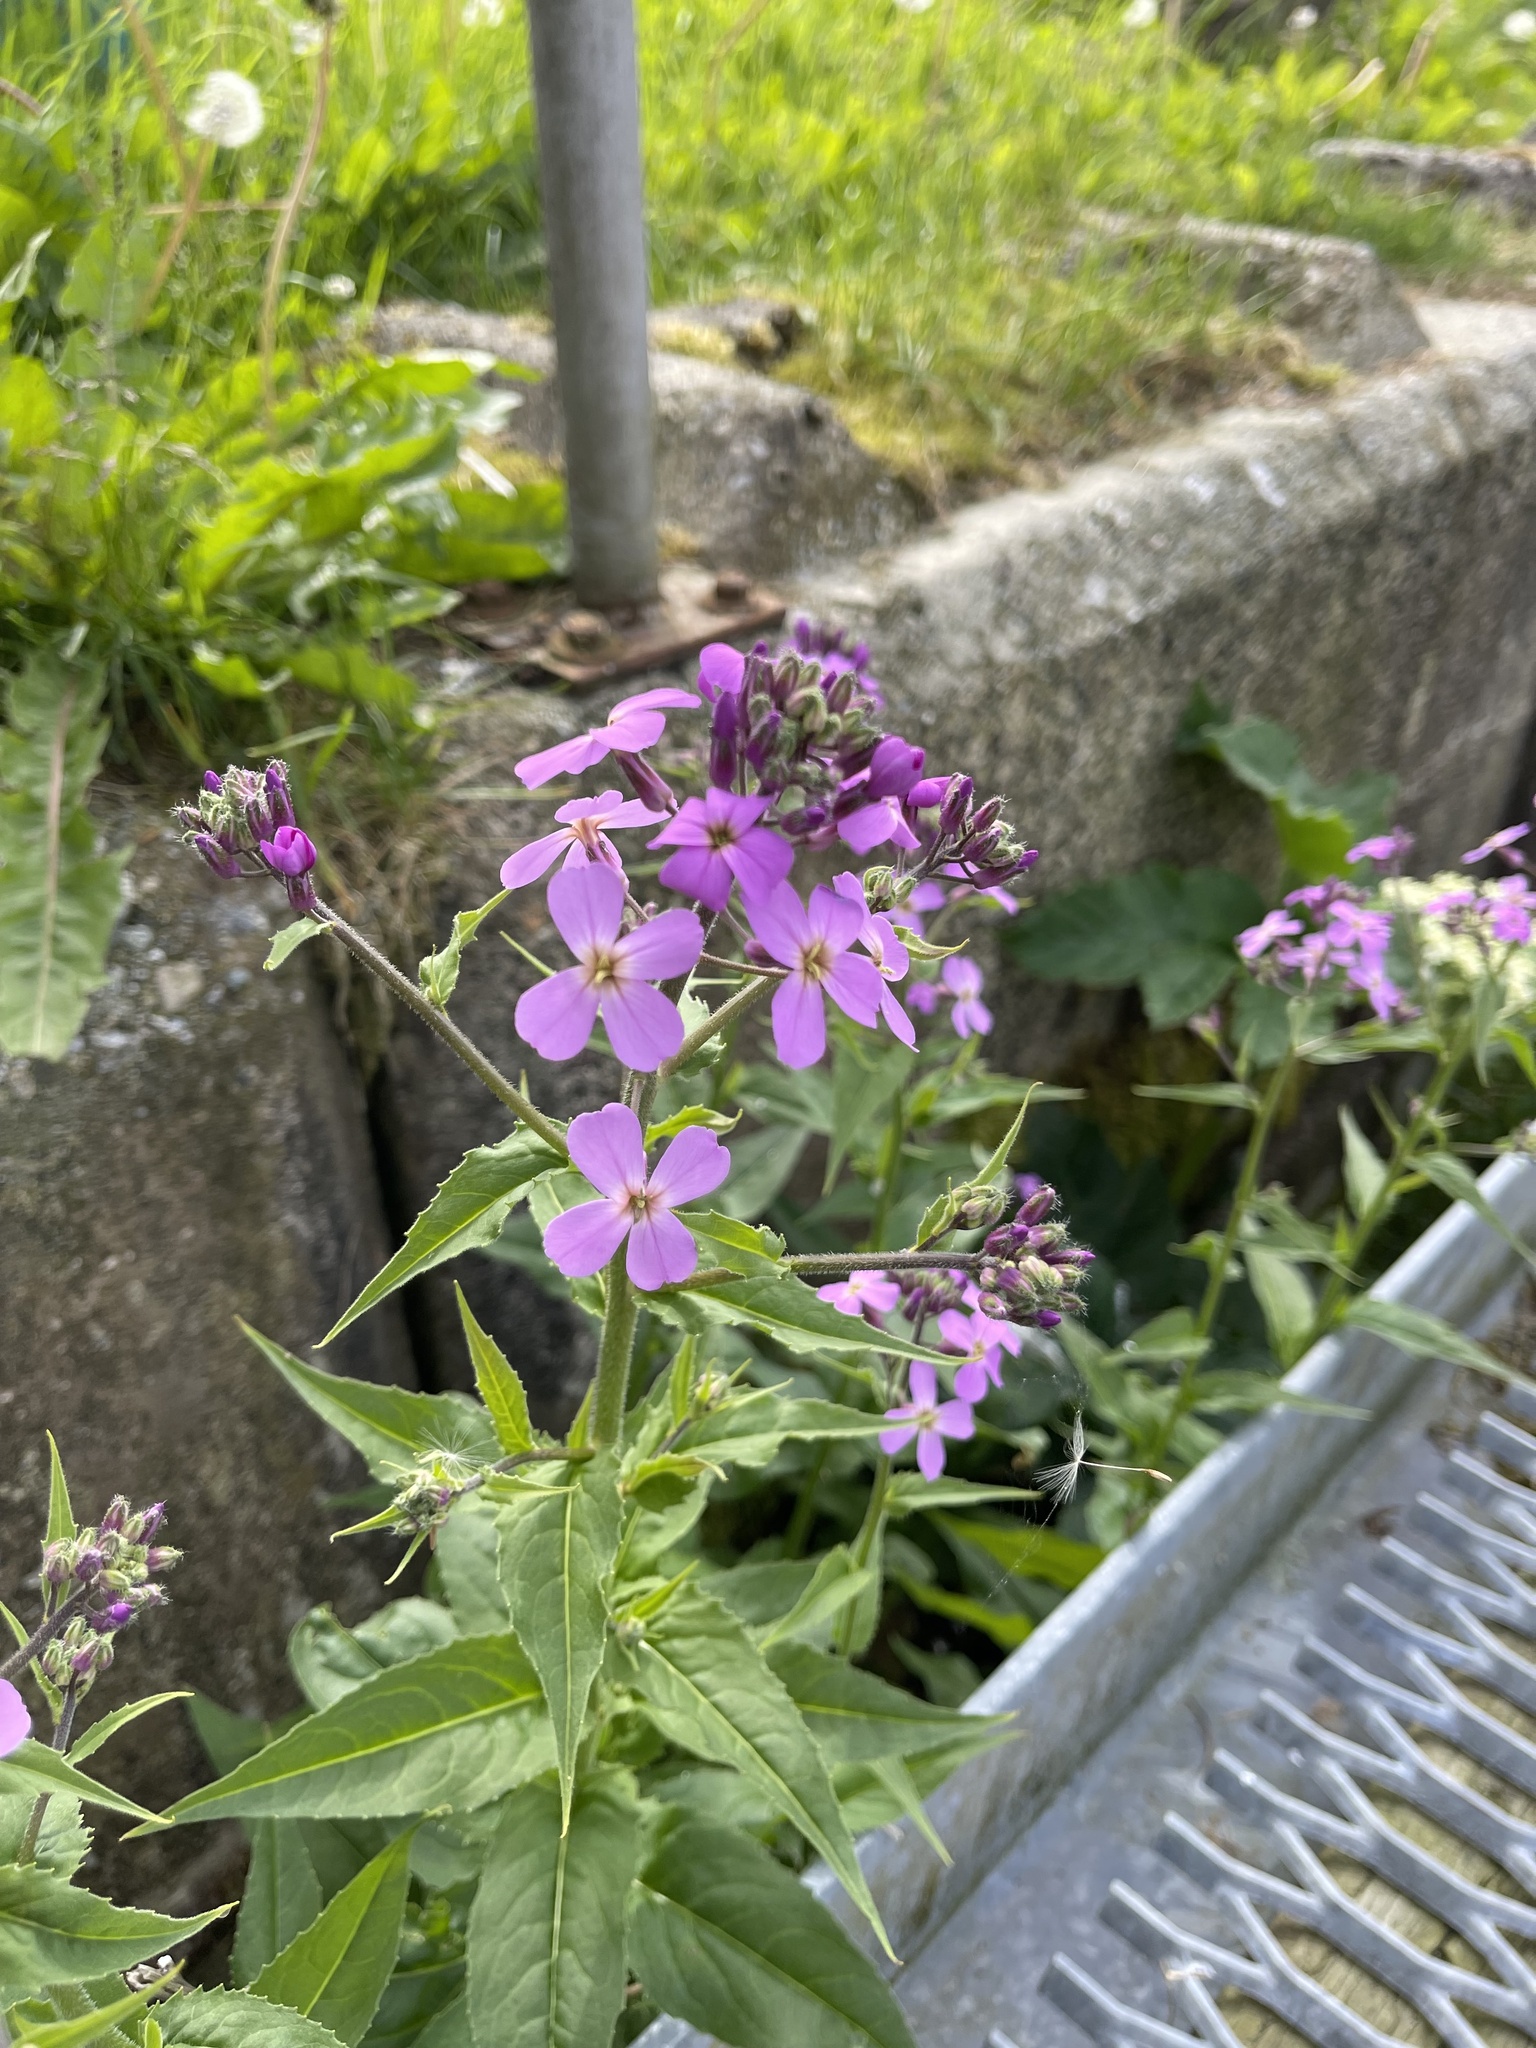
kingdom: Plantae
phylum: Tracheophyta
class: Magnoliopsida
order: Brassicales
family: Brassicaceae
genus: Hesperis
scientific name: Hesperis matronalis
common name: Dame's-violet
